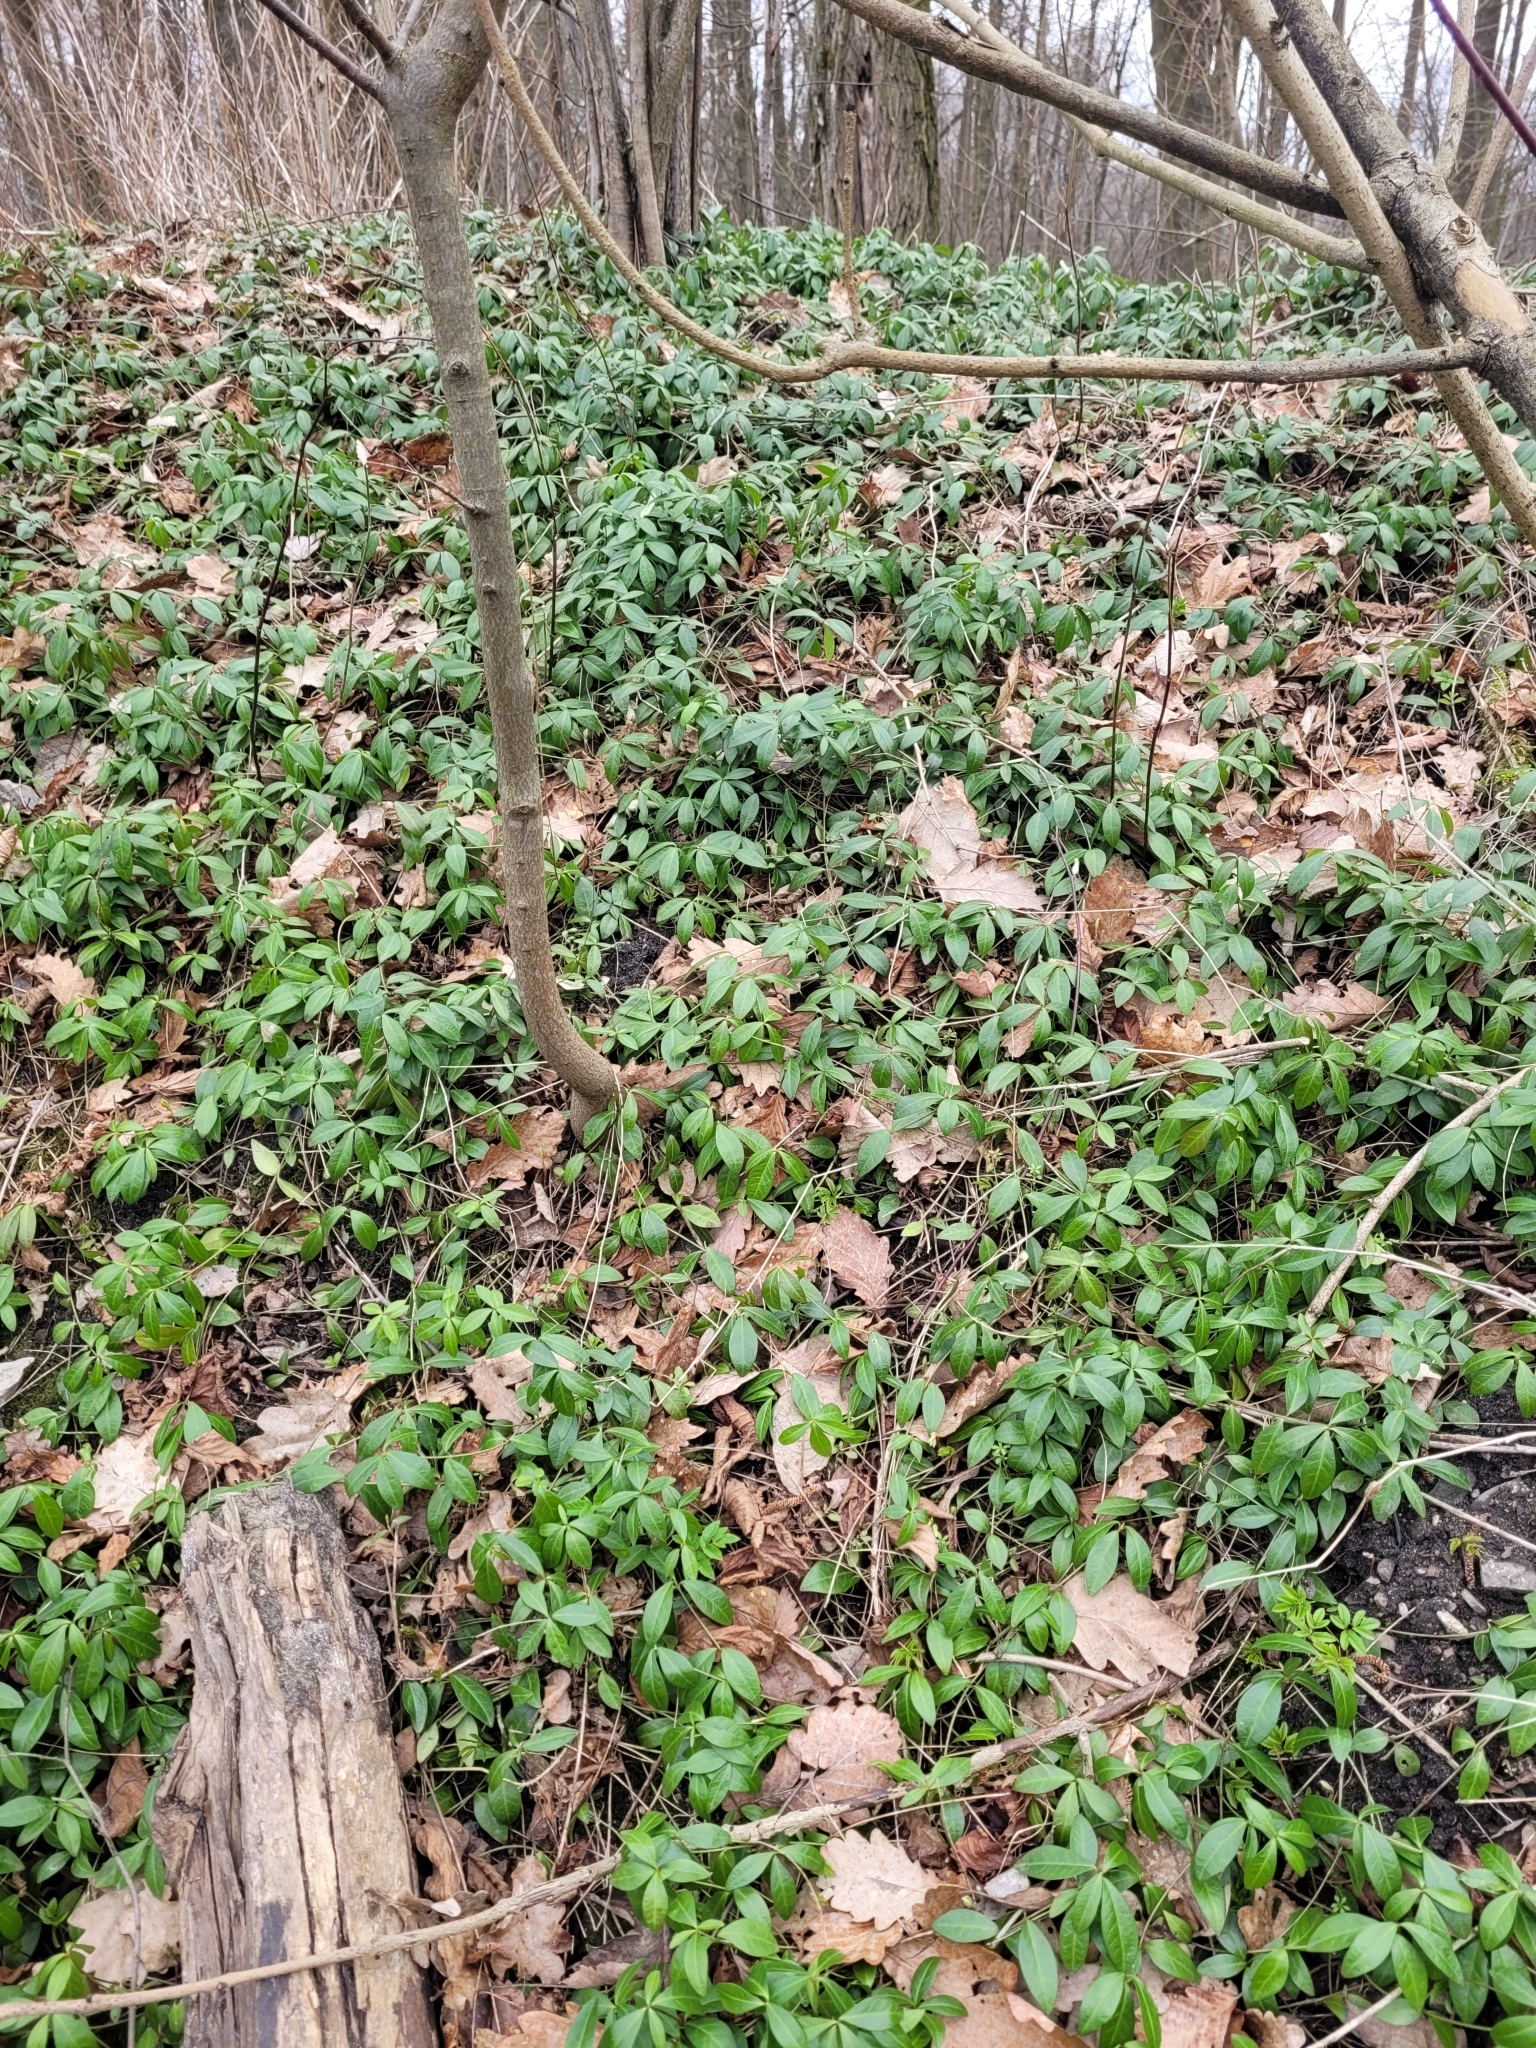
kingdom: Plantae
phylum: Tracheophyta
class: Magnoliopsida
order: Gentianales
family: Apocynaceae
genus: Vinca
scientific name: Vinca minor
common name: Lesser periwinkle
